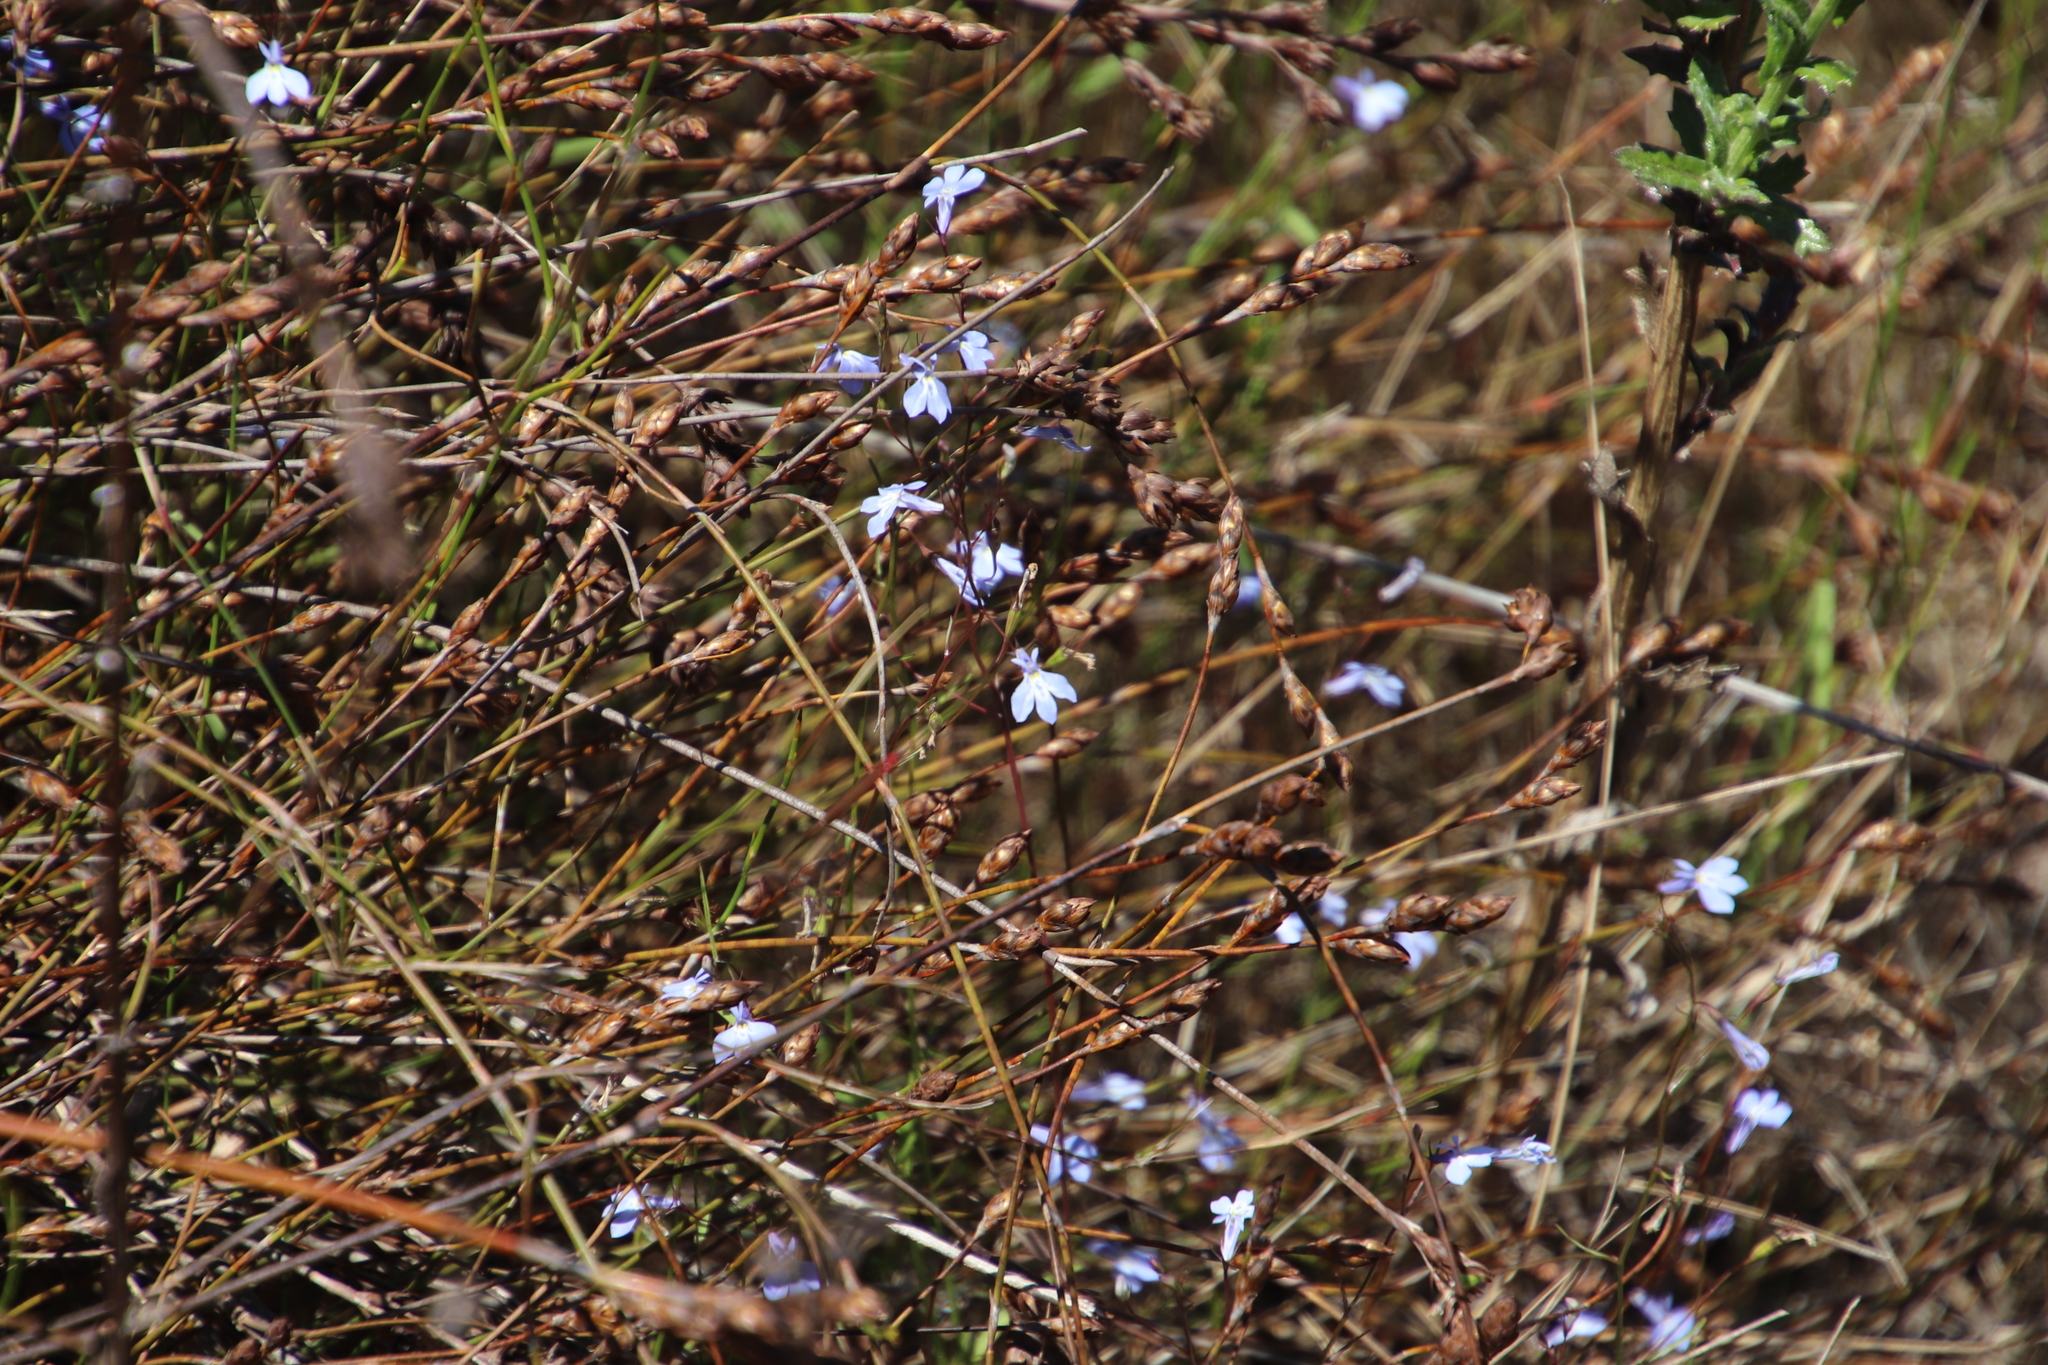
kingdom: Plantae
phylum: Tracheophyta
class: Magnoliopsida
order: Asterales
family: Campanulaceae
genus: Lobelia
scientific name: Lobelia erinus
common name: Edging lobelia
